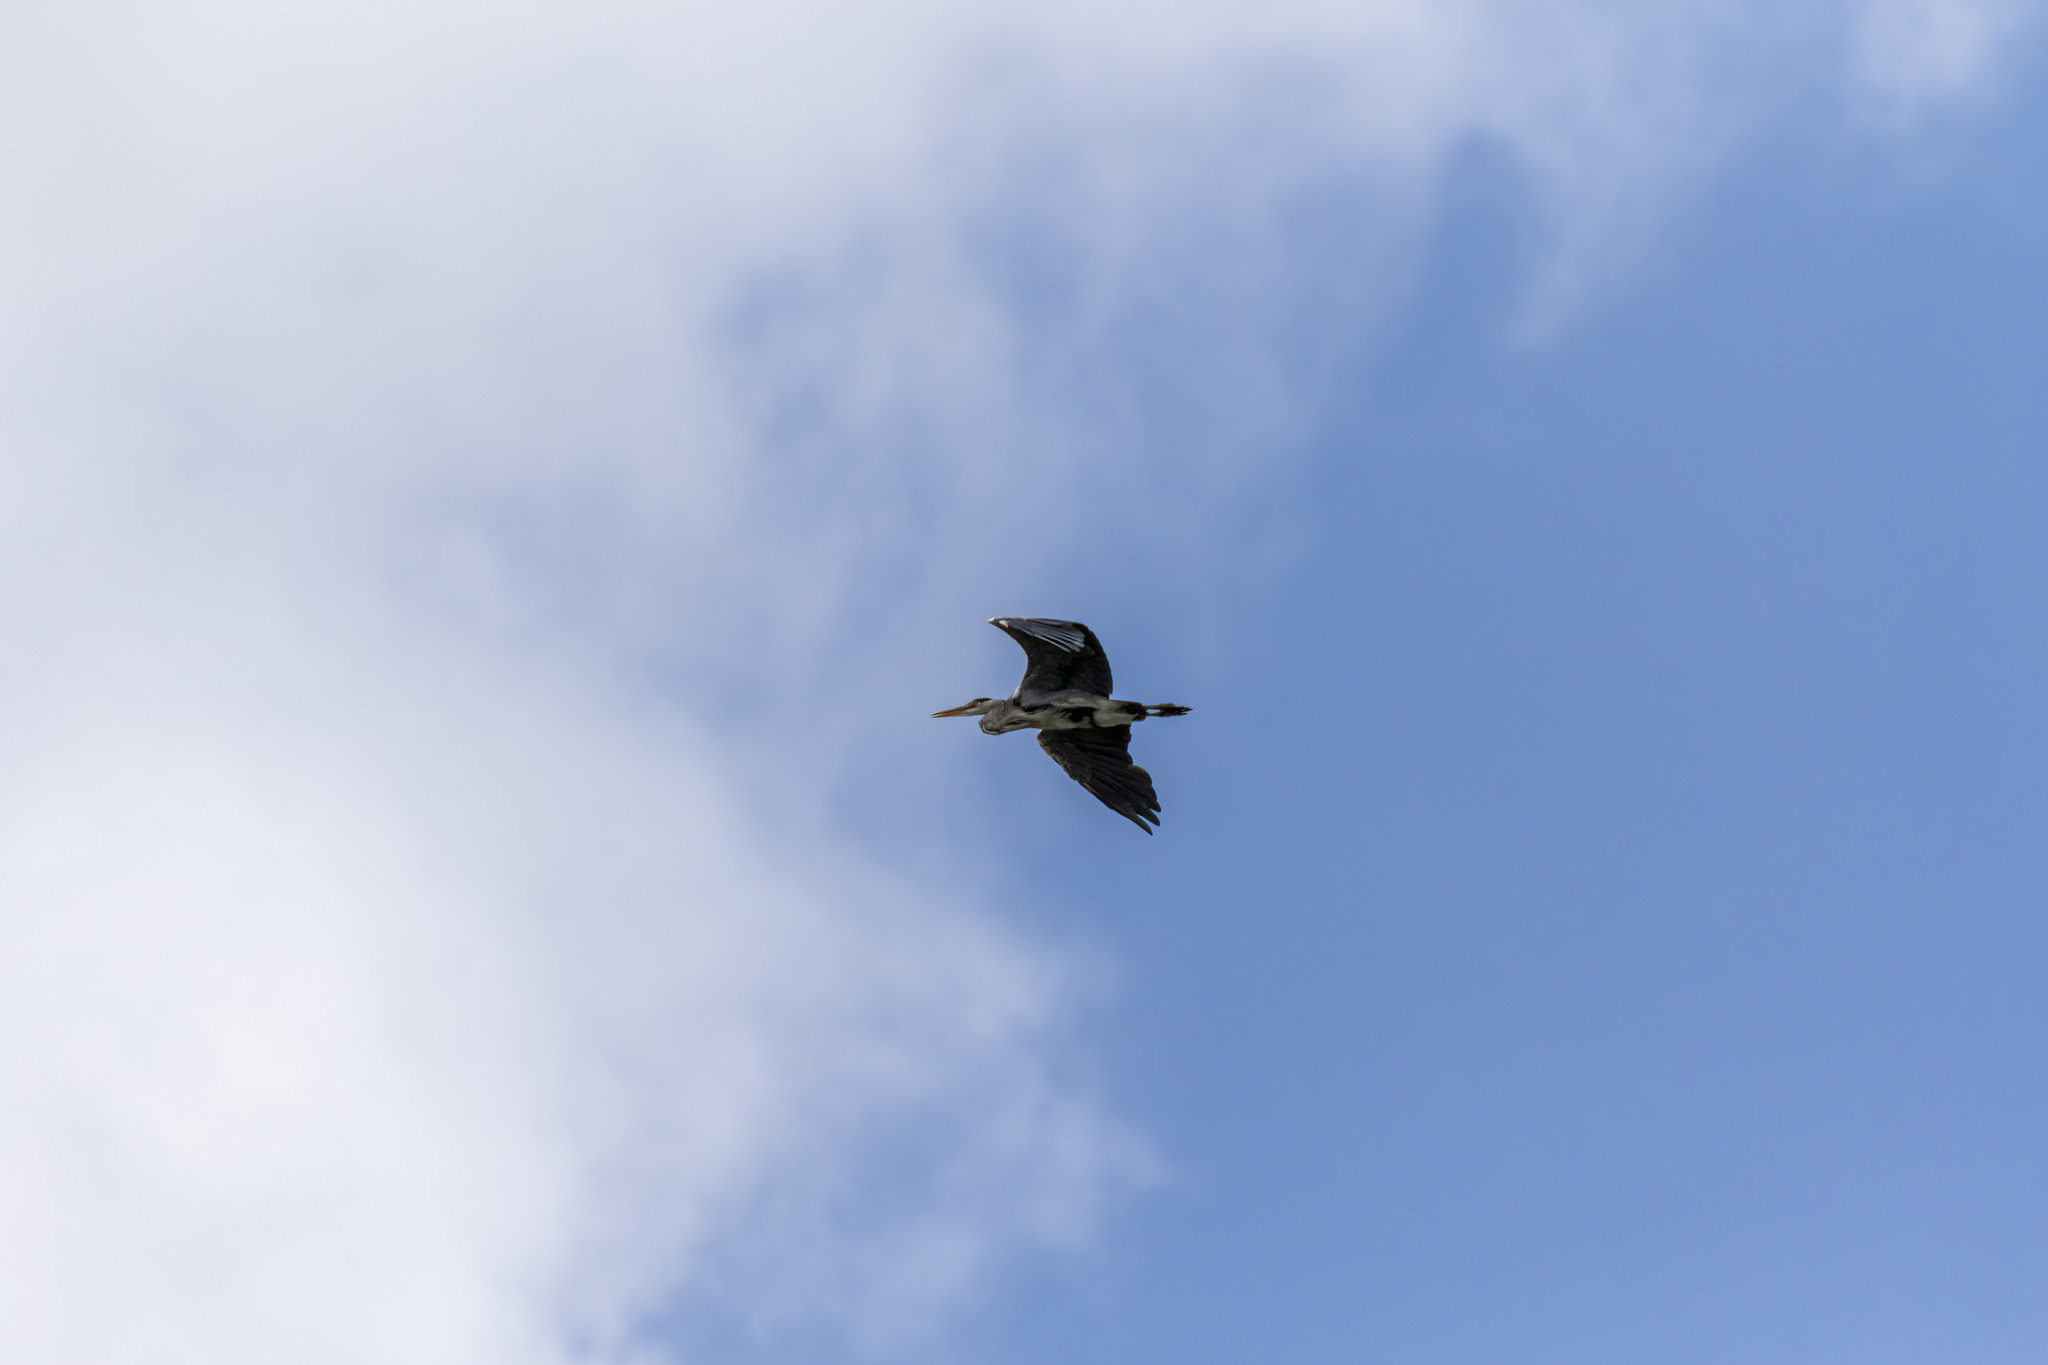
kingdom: Animalia
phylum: Chordata
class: Aves
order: Pelecaniformes
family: Ardeidae
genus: Ardea
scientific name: Ardea cinerea
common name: Grey heron
